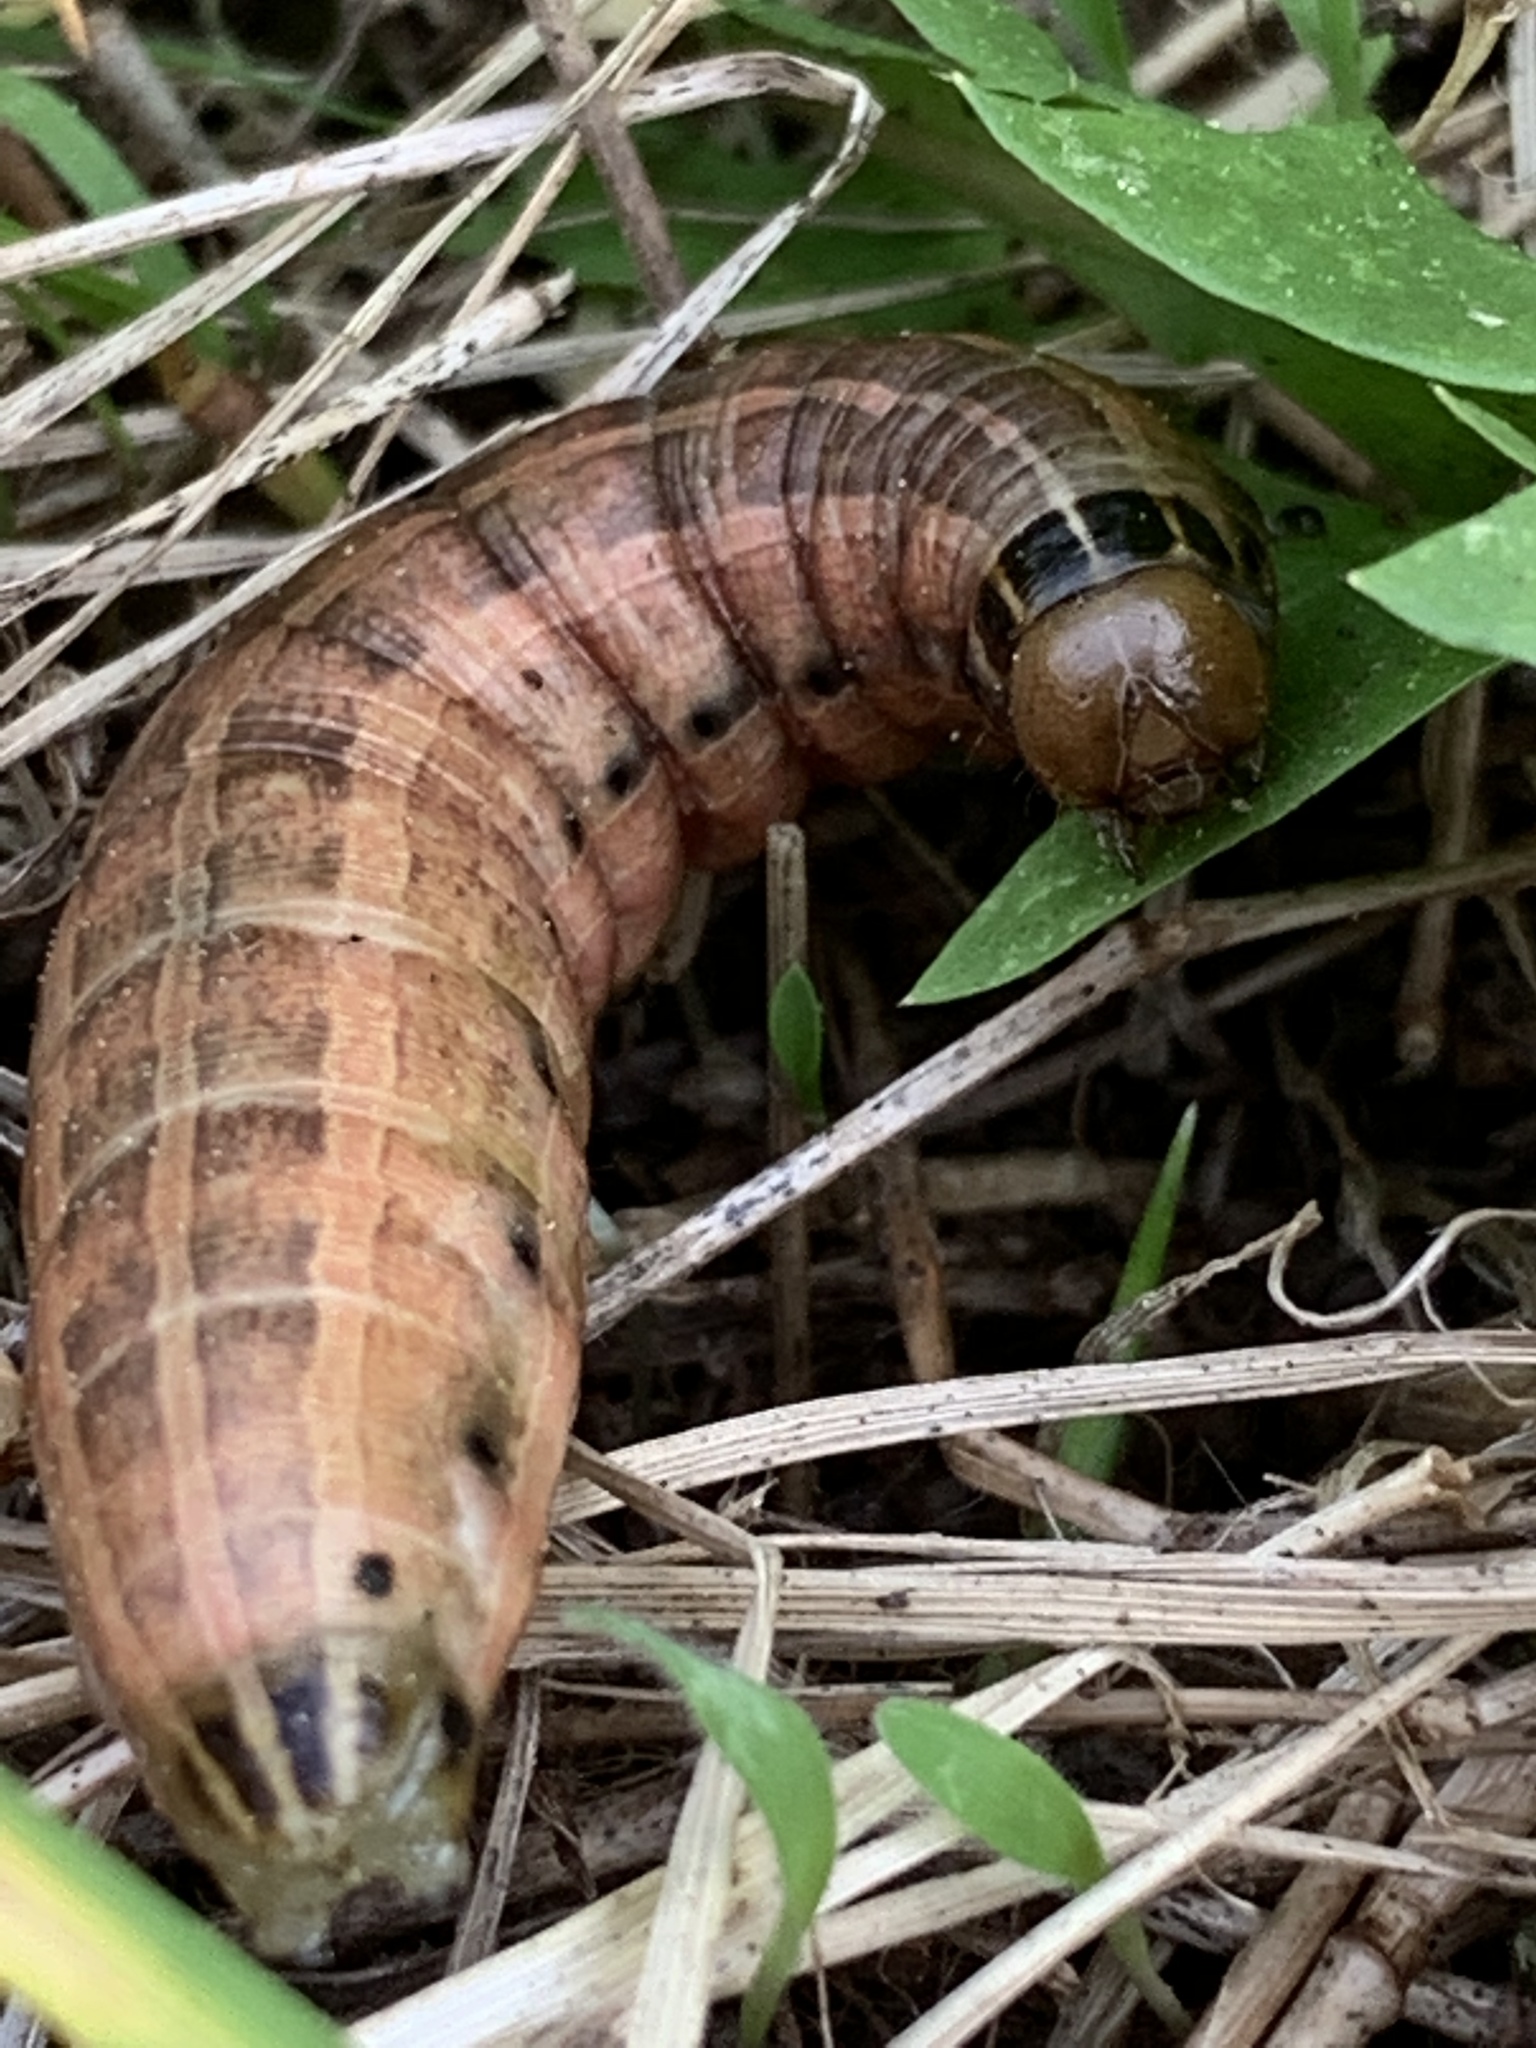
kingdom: Animalia
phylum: Arthropoda
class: Insecta
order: Lepidoptera
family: Noctuidae
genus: Nephelodes
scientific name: Nephelodes minians
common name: Bronzed cutworm
